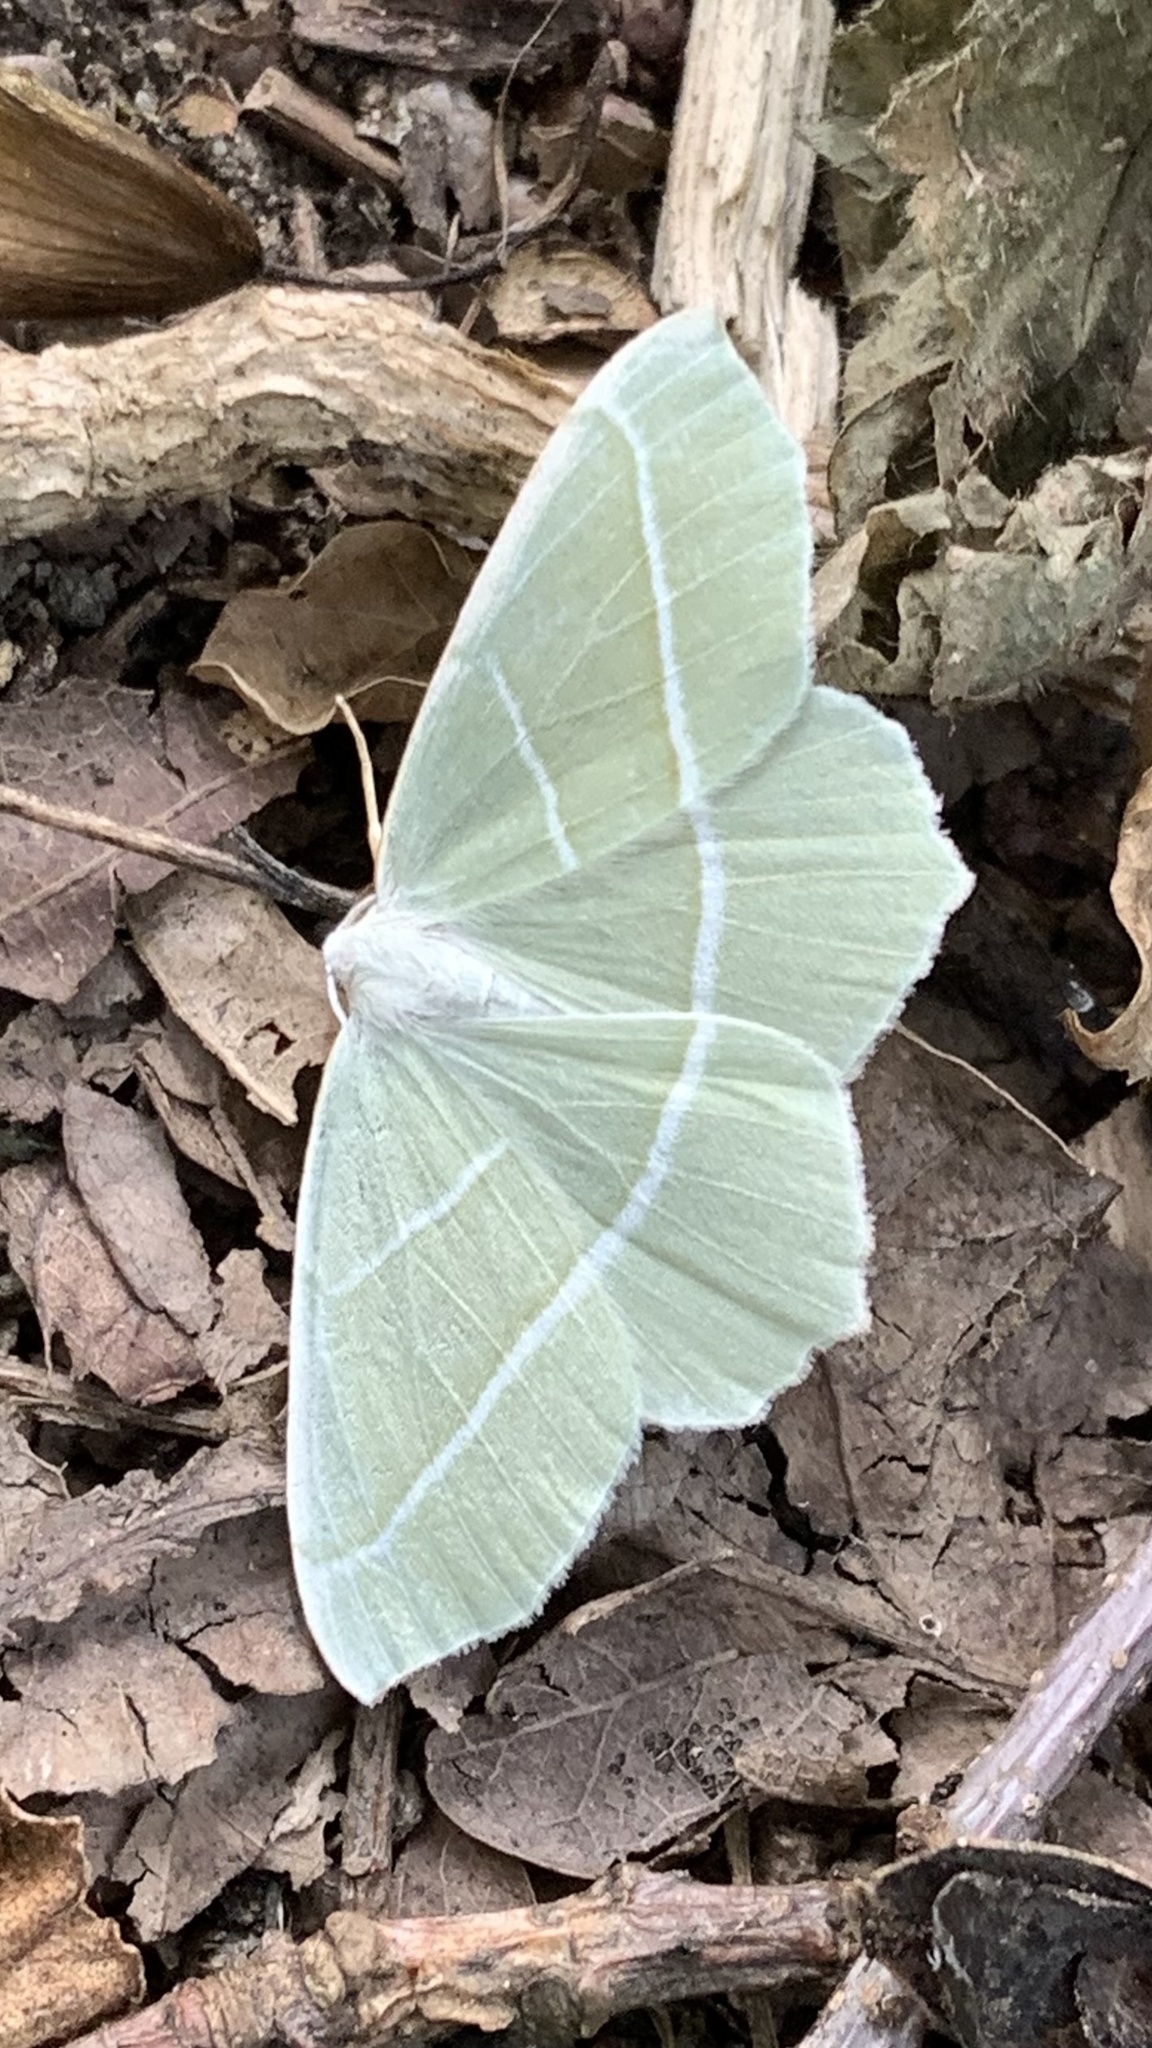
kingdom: Animalia
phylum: Arthropoda
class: Insecta
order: Lepidoptera
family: Geometridae
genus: Campaea
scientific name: Campaea margaritaria
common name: Light emerald
